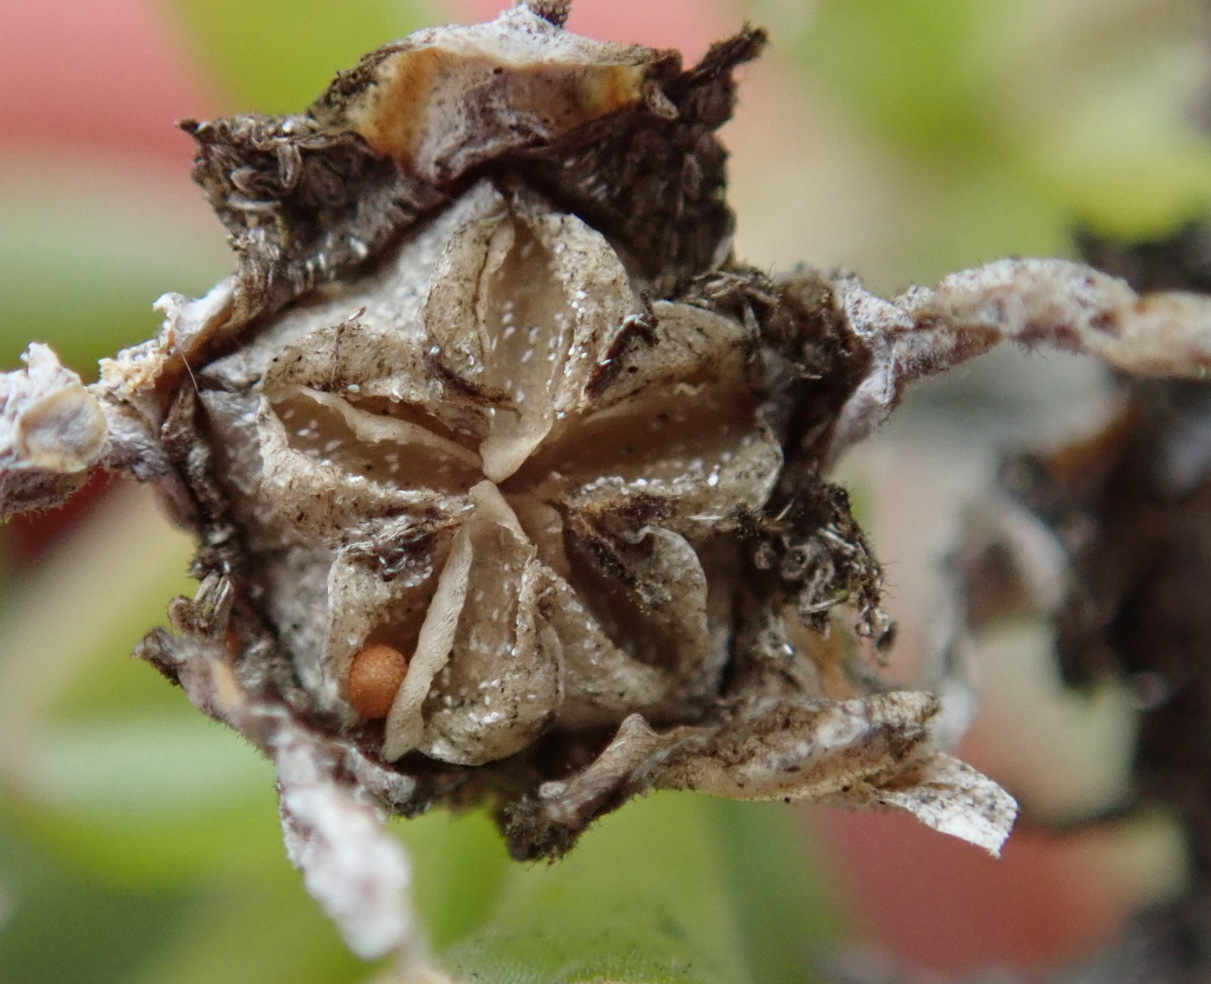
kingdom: Plantae
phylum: Tracheophyta
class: Magnoliopsida
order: Caryophyllales
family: Aizoaceae
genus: Delosperma
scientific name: Delosperma inconspicuum
